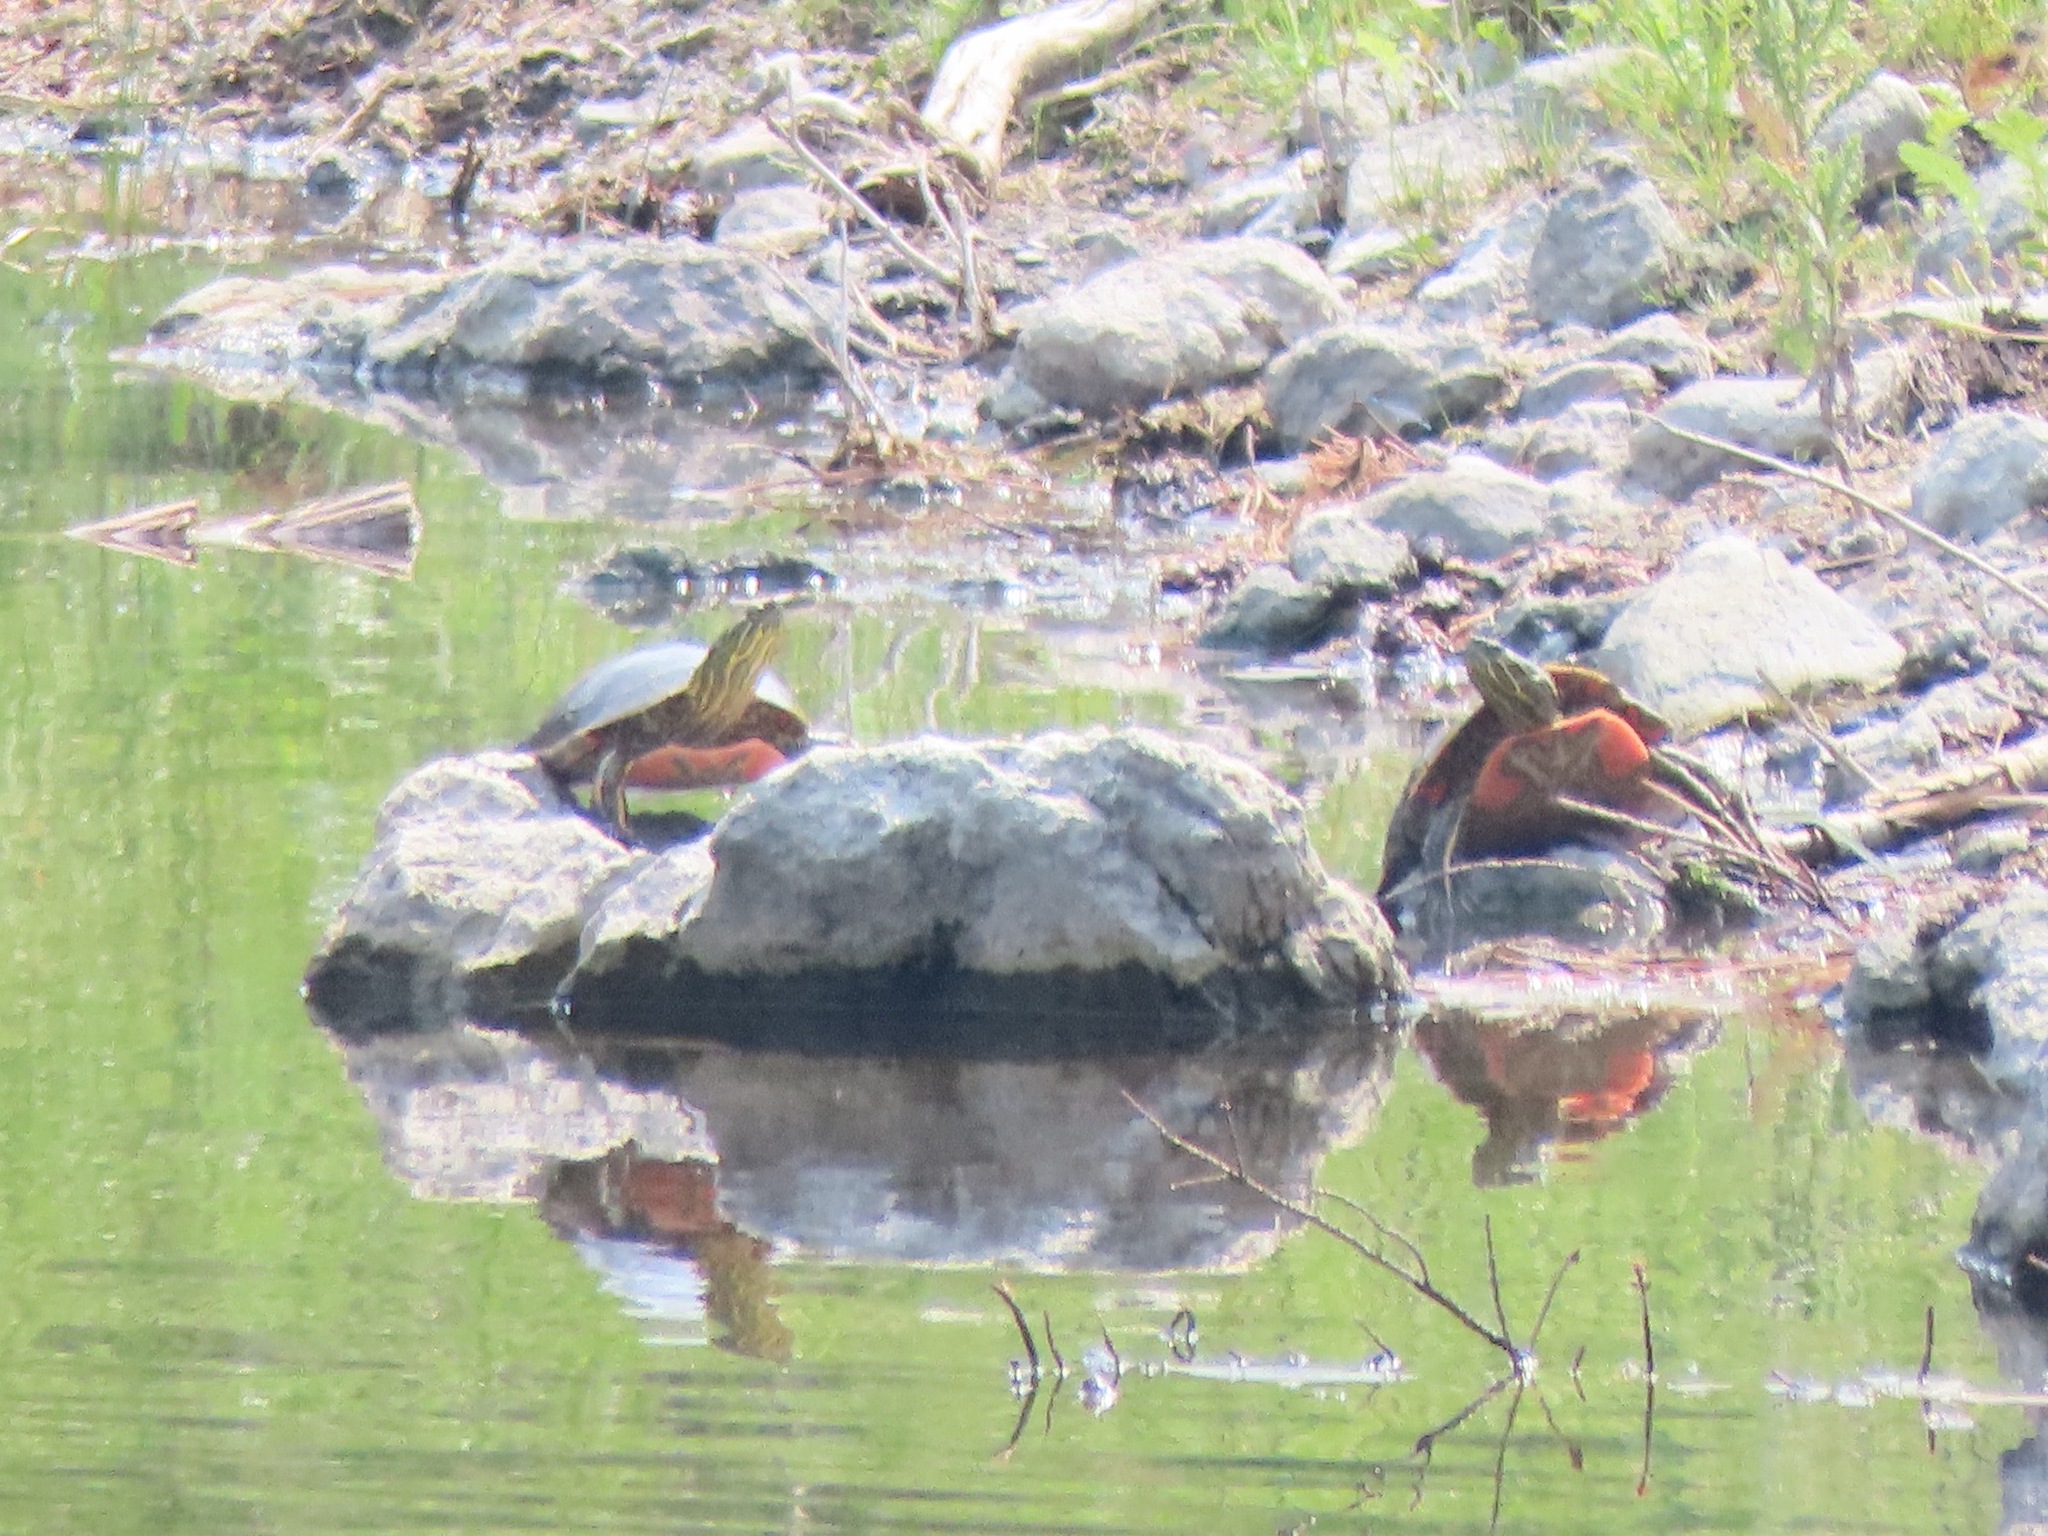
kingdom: Animalia
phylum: Chordata
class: Testudines
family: Emydidae
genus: Chrysemys
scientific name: Chrysemys picta
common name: Painted turtle
